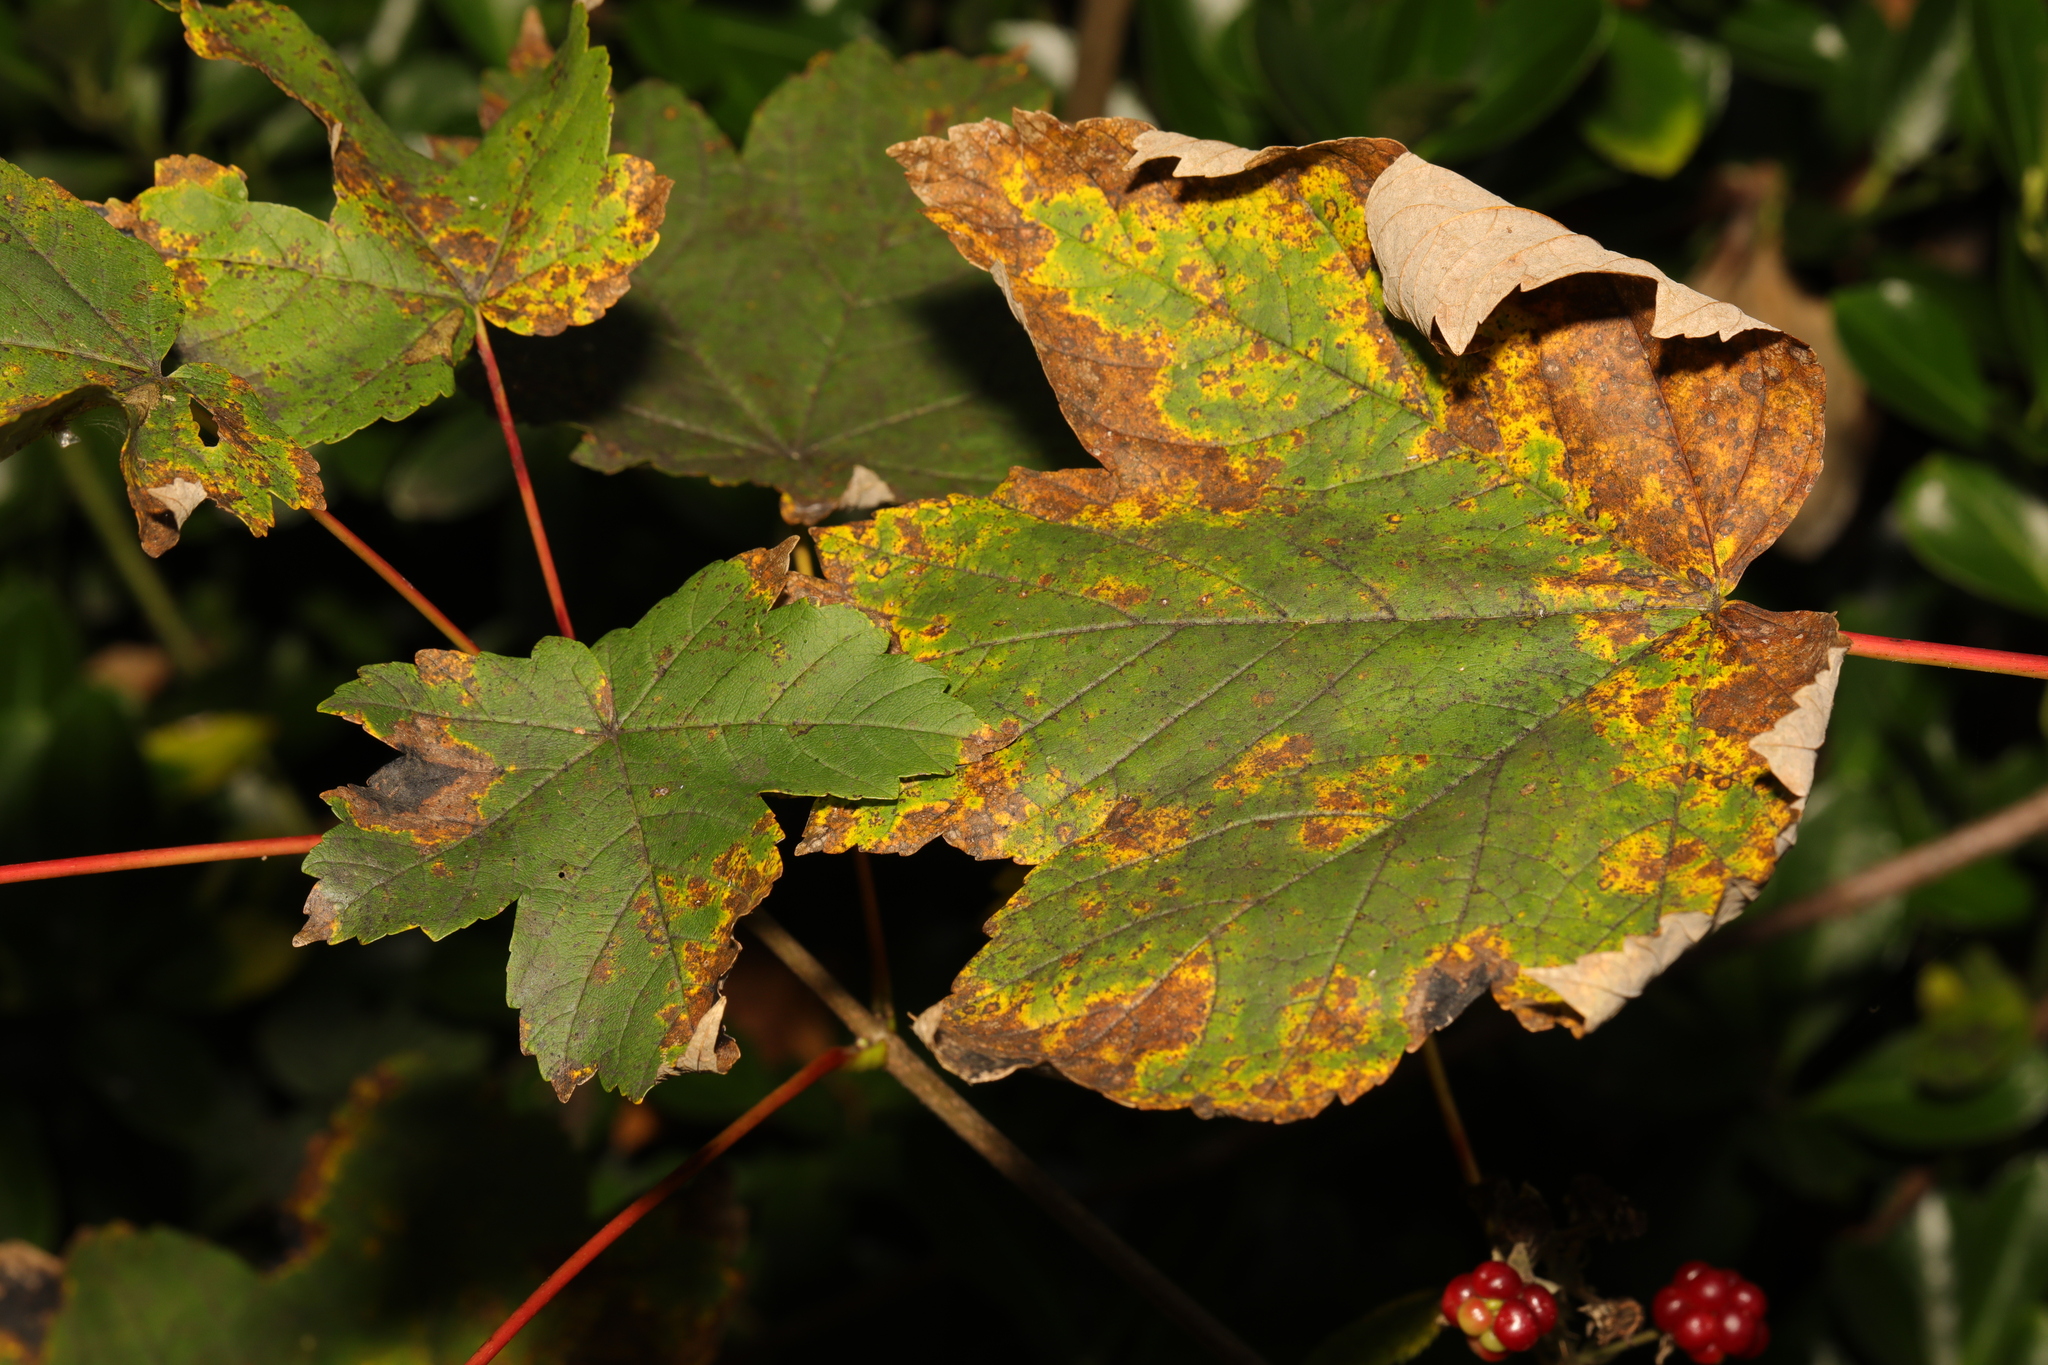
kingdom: Plantae
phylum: Tracheophyta
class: Magnoliopsida
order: Sapindales
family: Sapindaceae
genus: Acer
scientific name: Acer pseudoplatanus
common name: Sycamore
